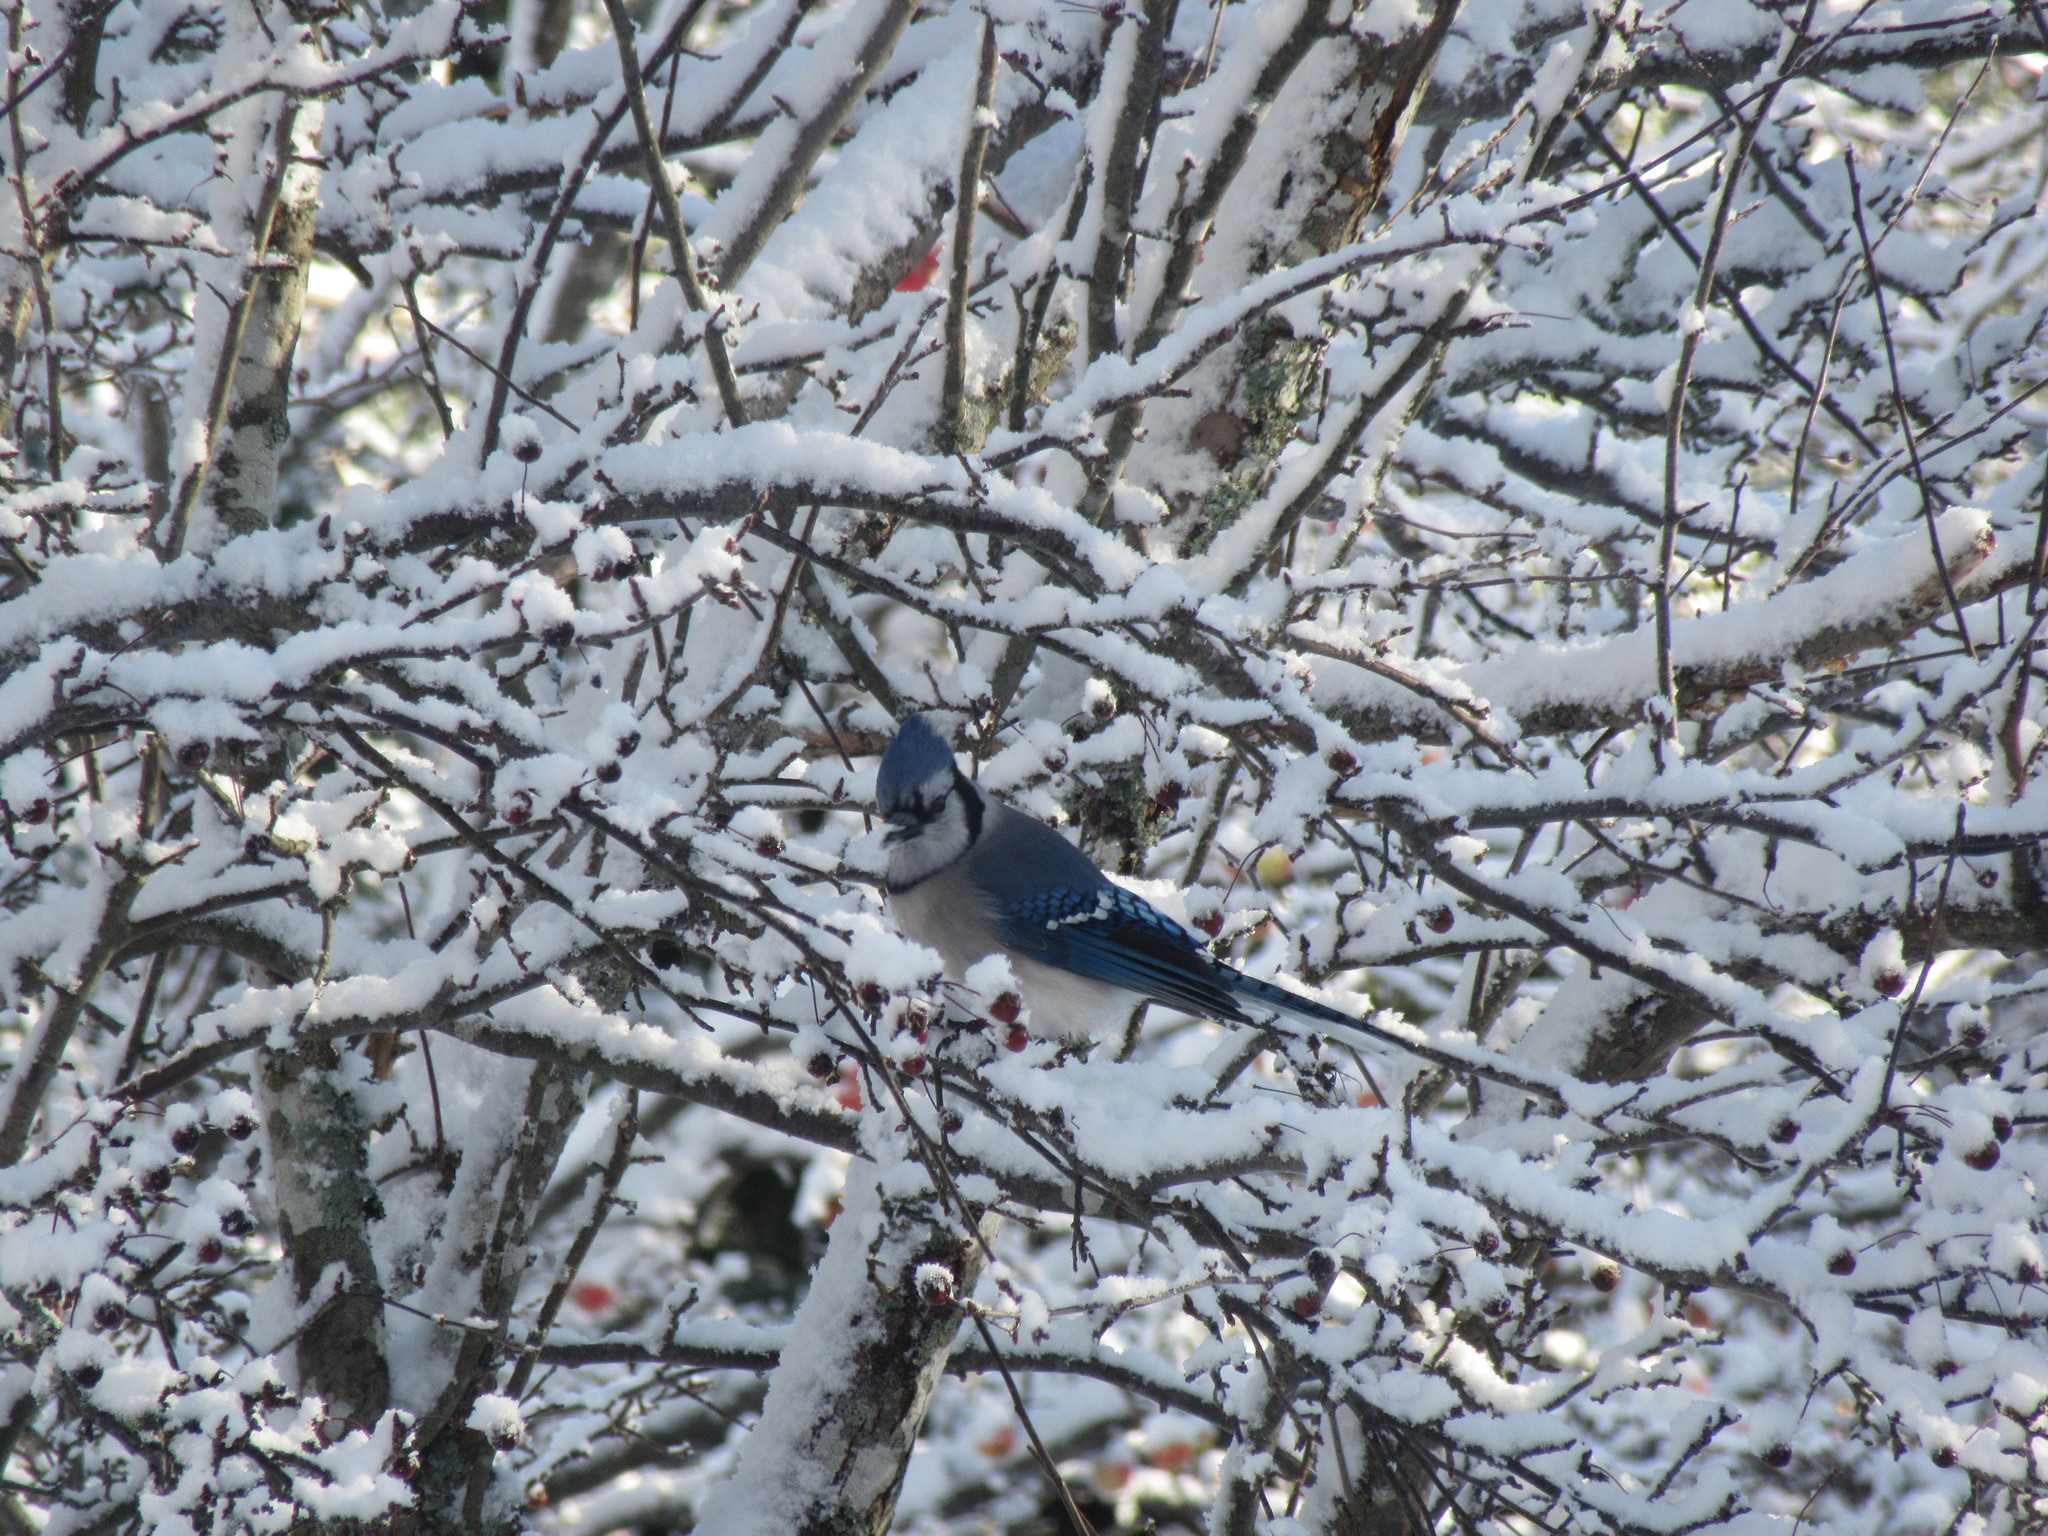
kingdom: Animalia
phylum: Chordata
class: Aves
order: Passeriformes
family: Corvidae
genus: Cyanocitta
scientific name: Cyanocitta cristata
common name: Blue jay
